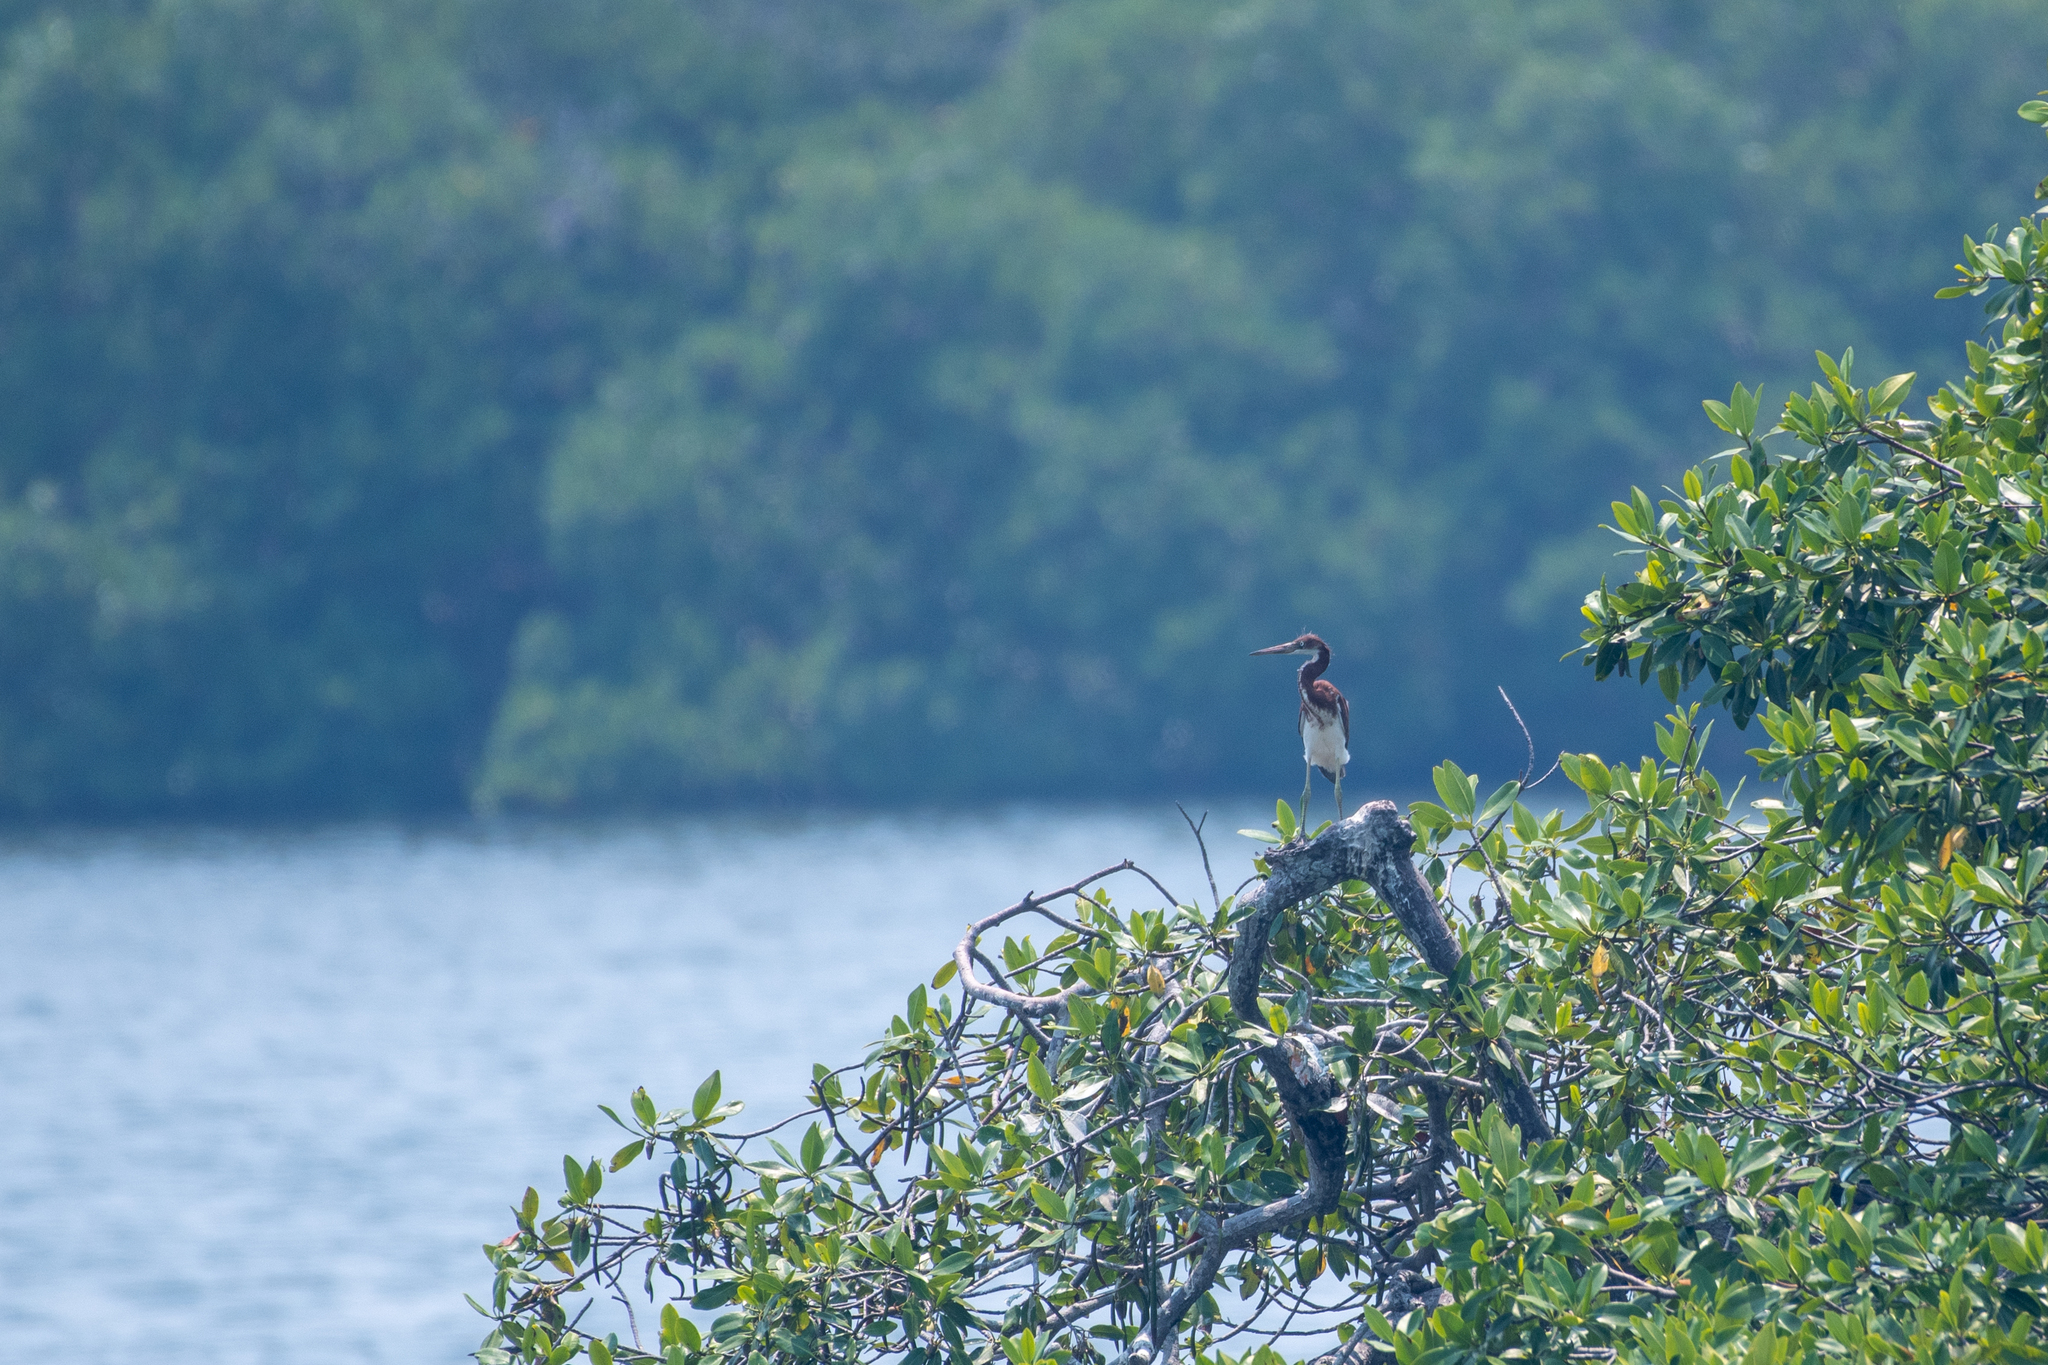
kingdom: Animalia
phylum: Chordata
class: Aves
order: Pelecaniformes
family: Ardeidae
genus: Egretta
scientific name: Egretta tricolor
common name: Tricolored heron
